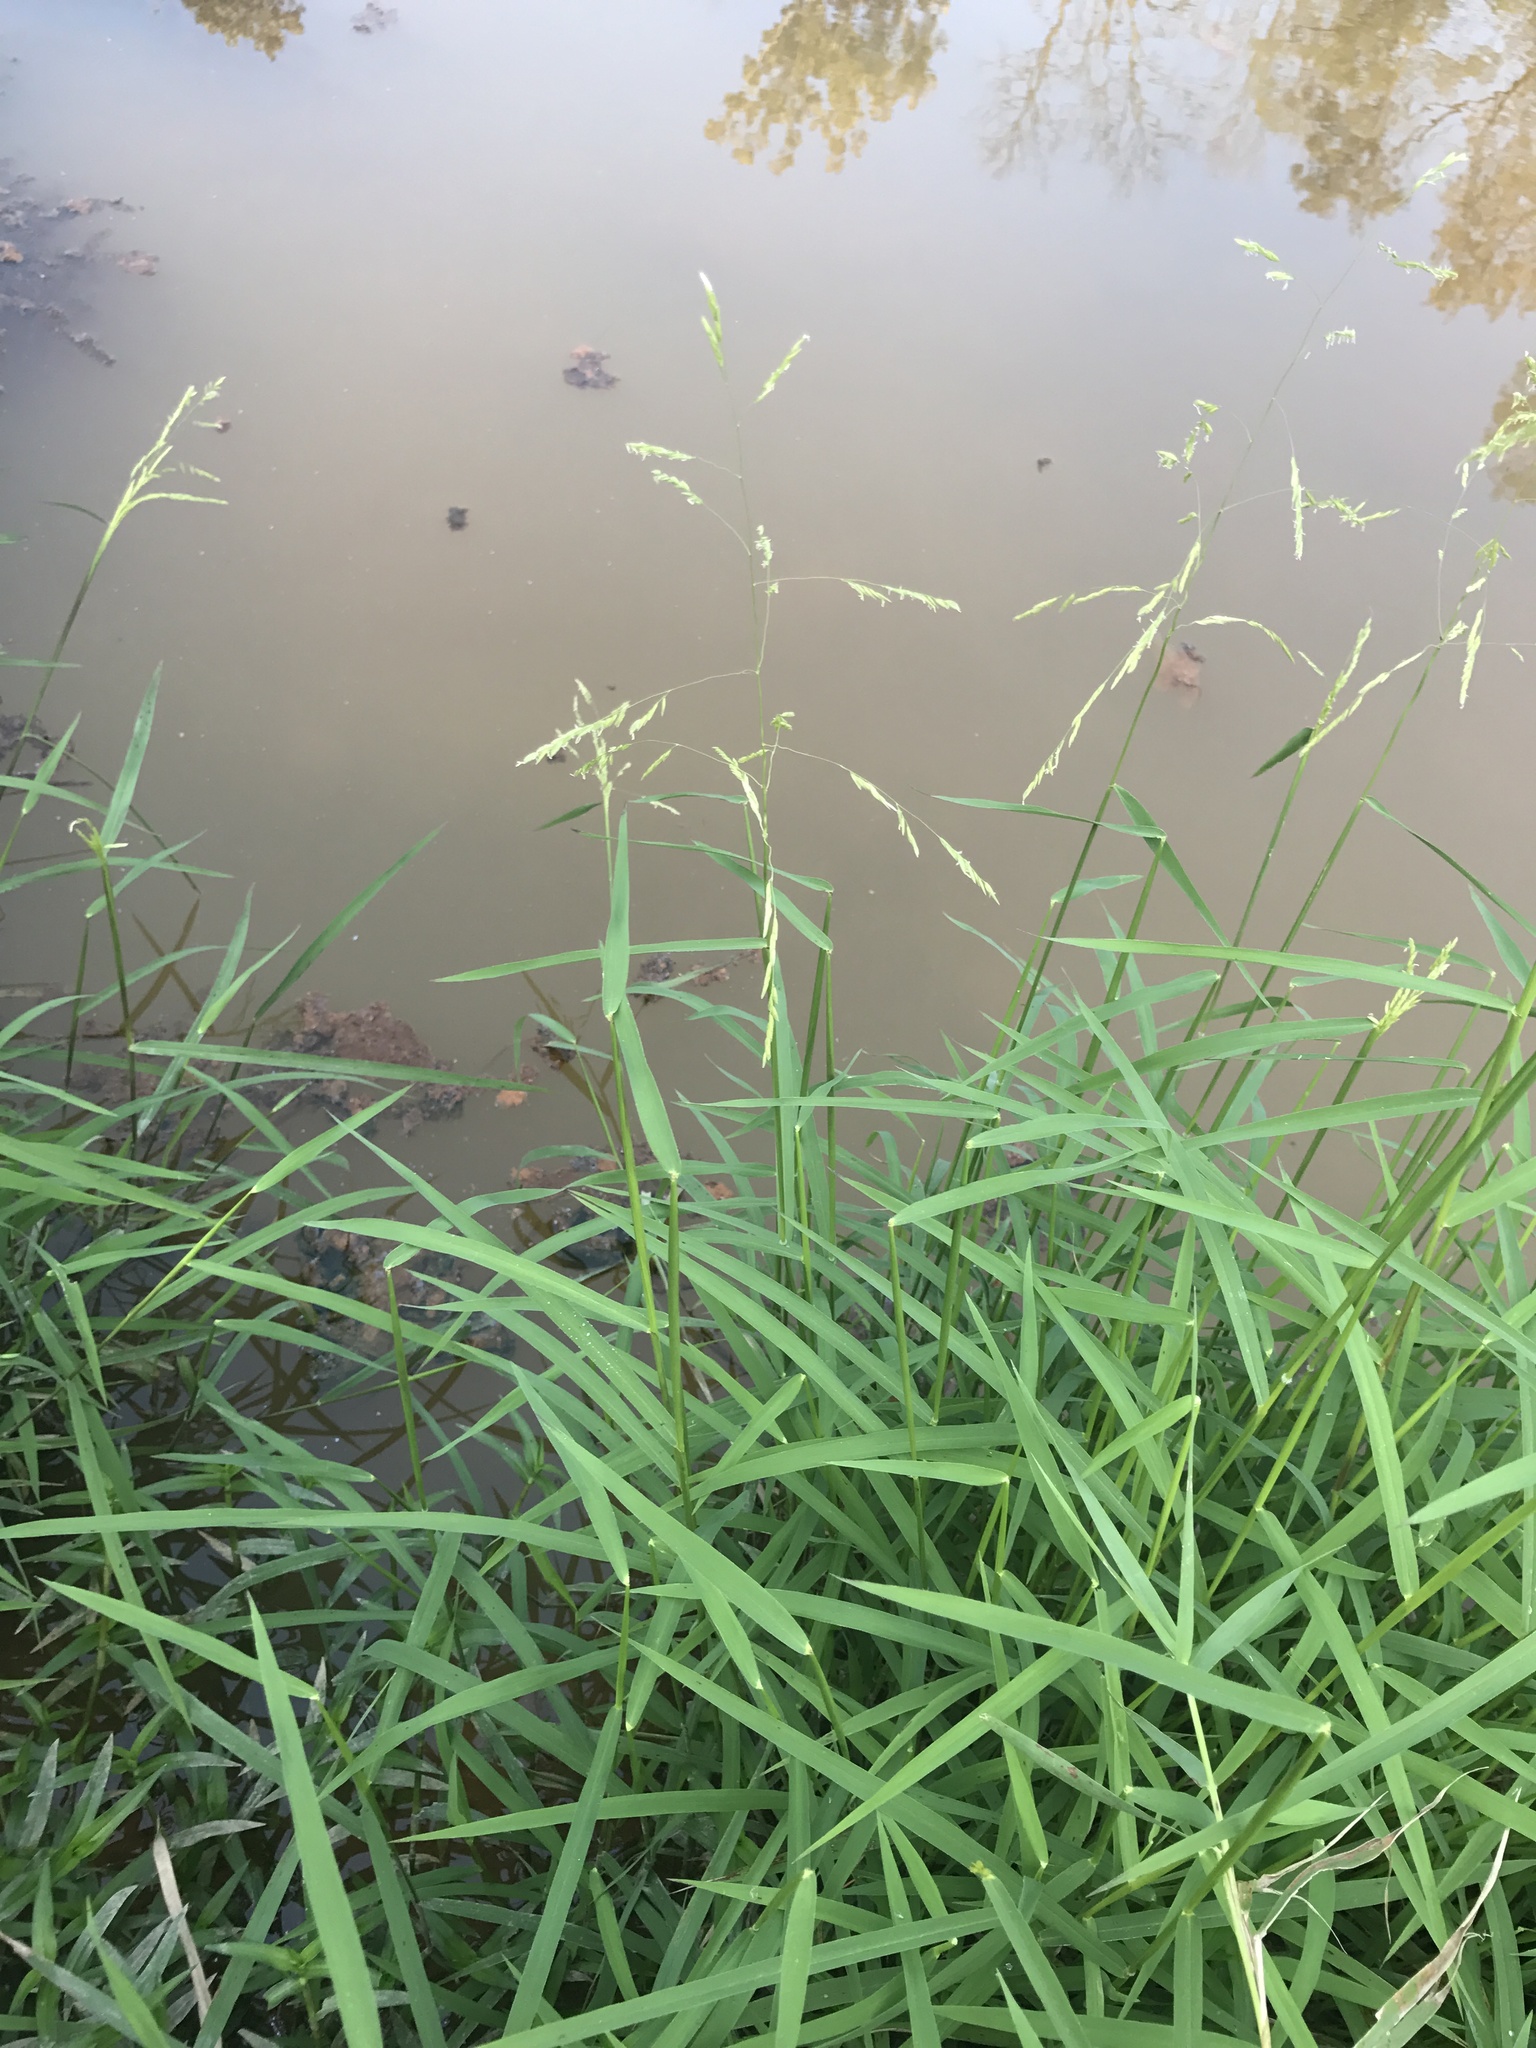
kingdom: Plantae
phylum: Tracheophyta
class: Liliopsida
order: Poales
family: Poaceae
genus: Leersia
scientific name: Leersia oryzoides
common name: Cut-grass
